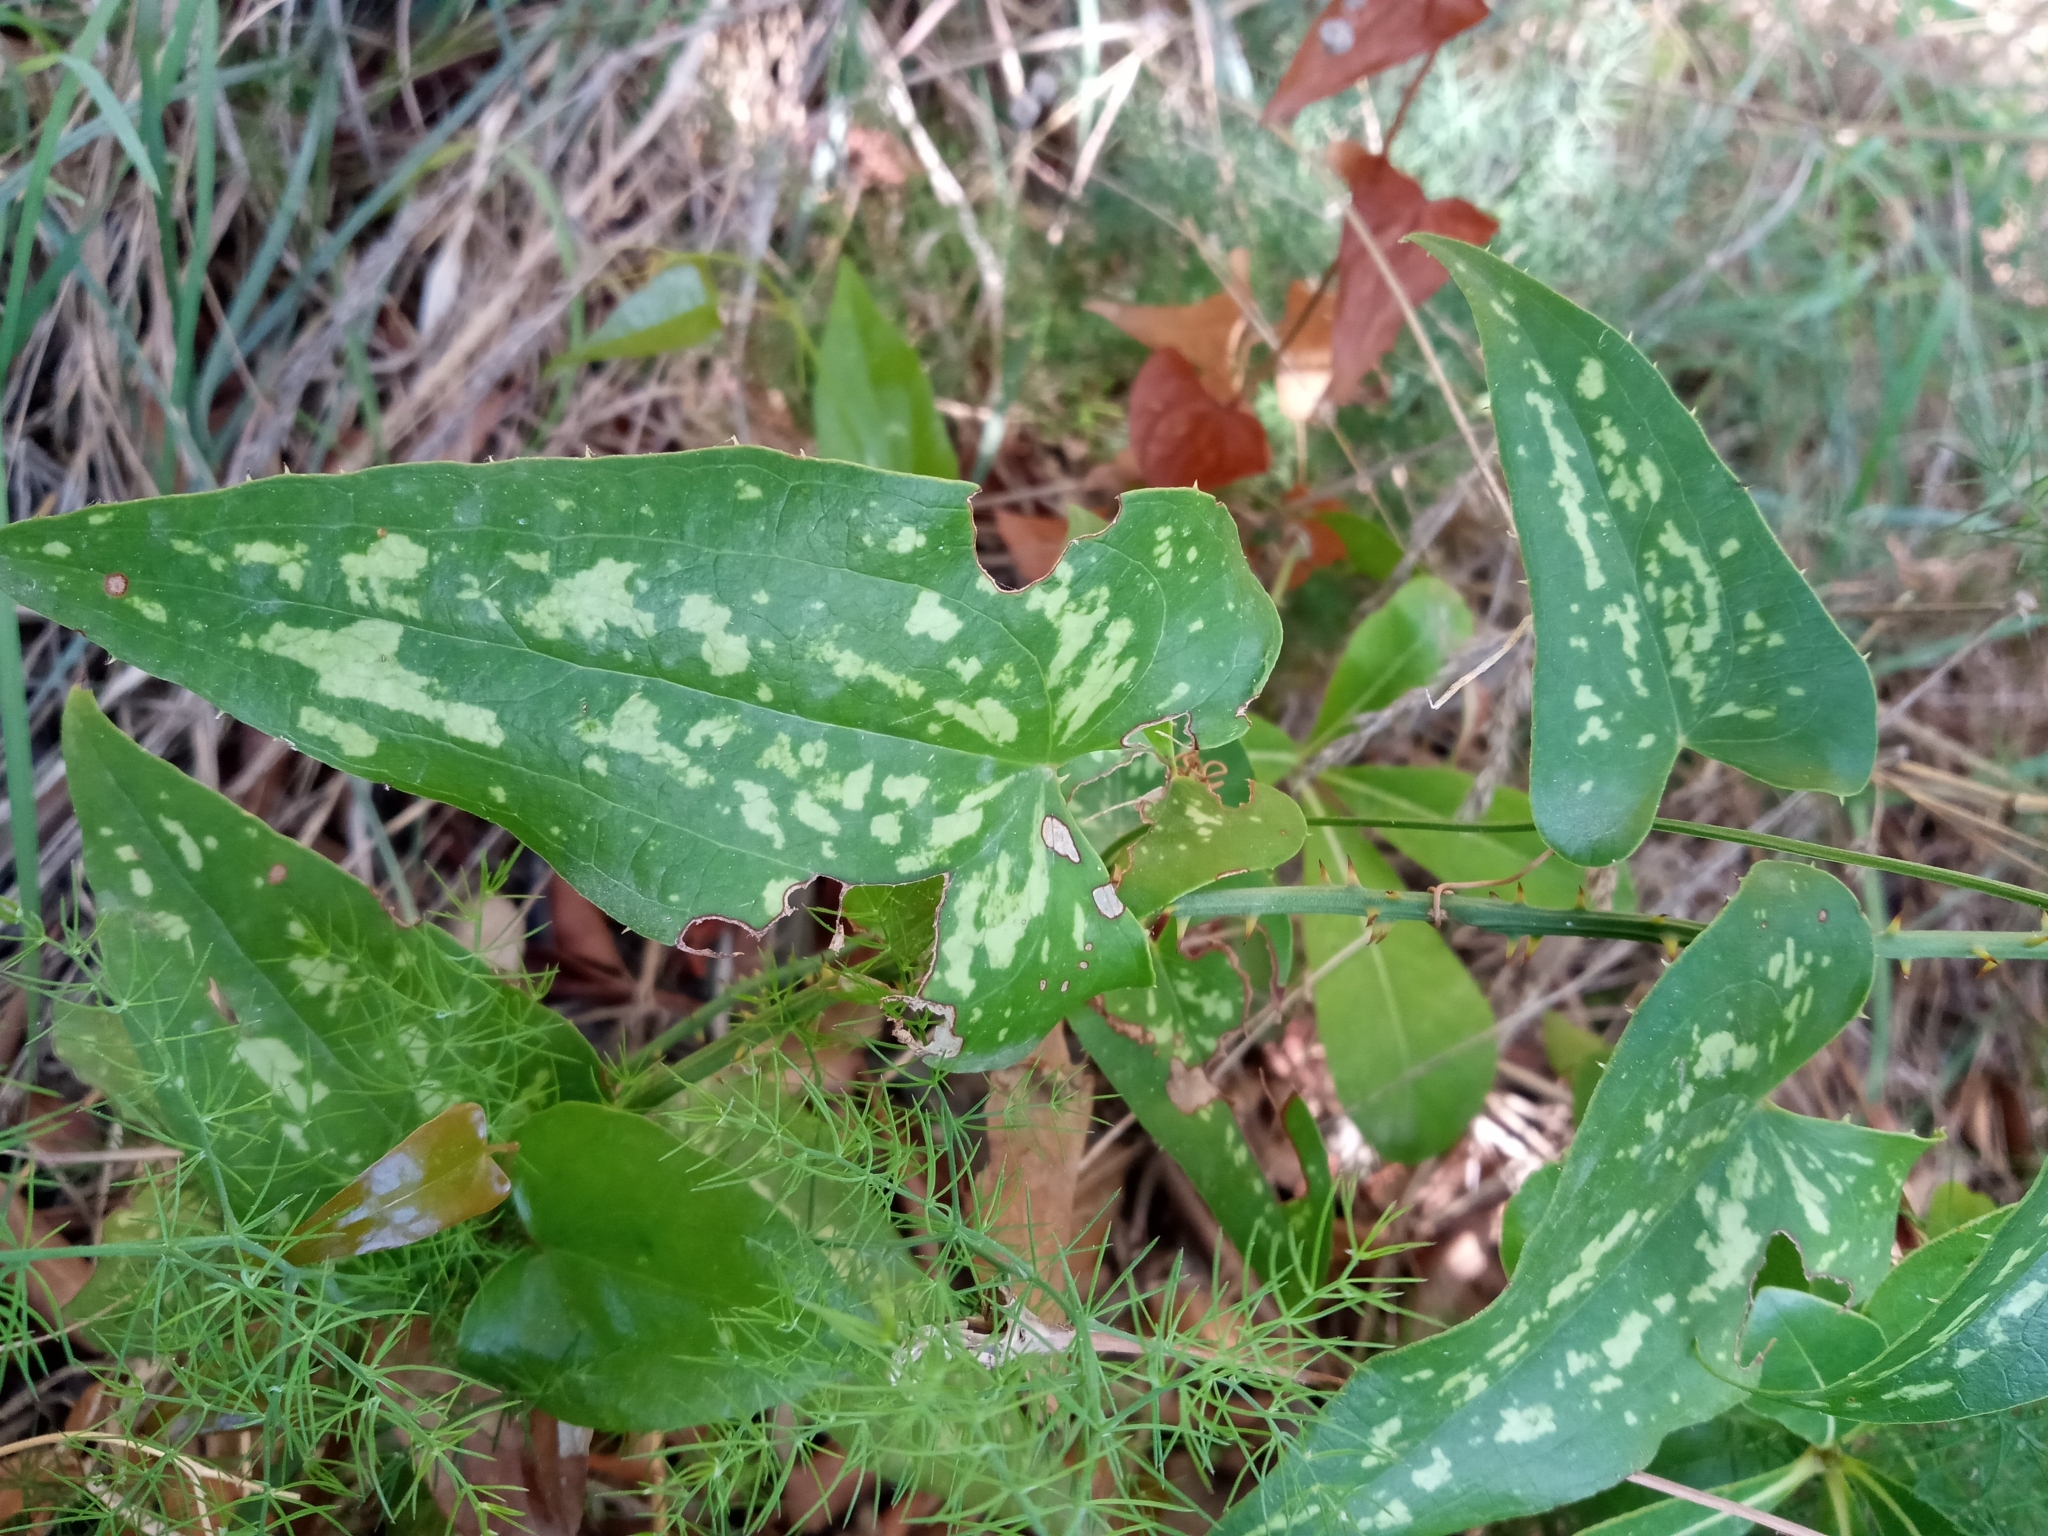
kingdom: Plantae
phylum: Tracheophyta
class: Liliopsida
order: Liliales
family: Smilacaceae
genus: Smilax
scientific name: Smilax aspera
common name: Common smilax
